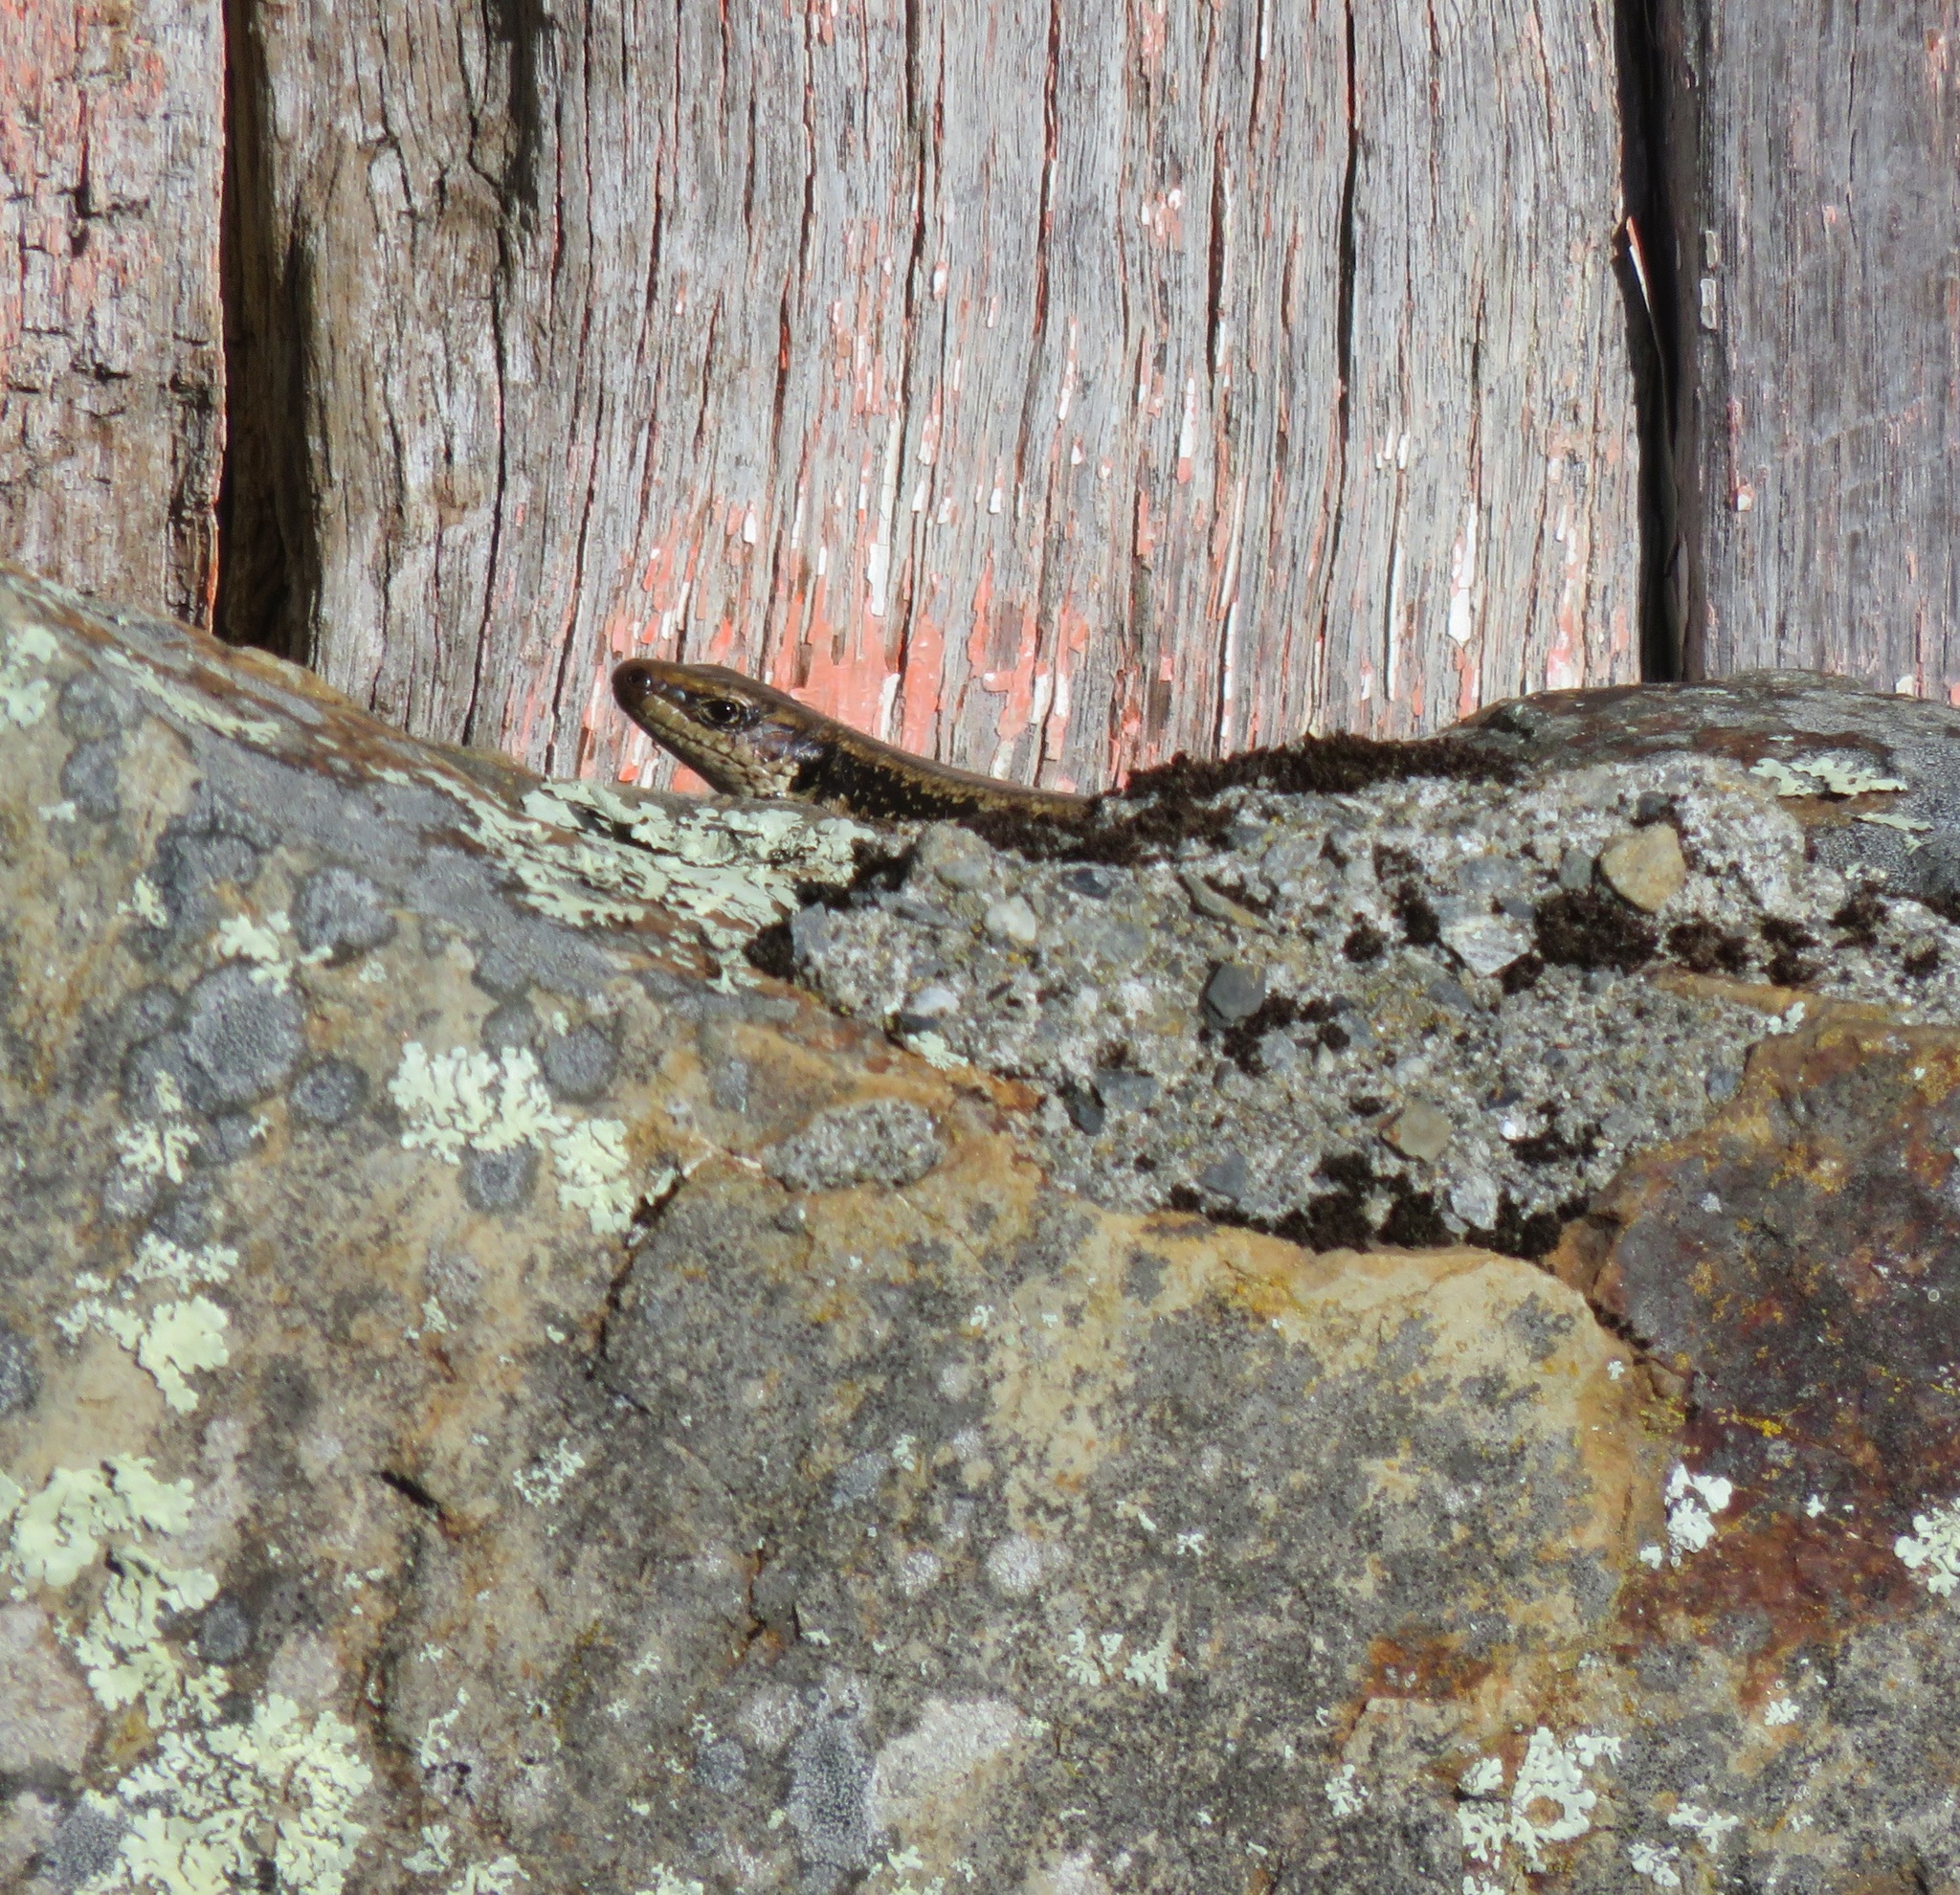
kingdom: Animalia
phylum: Chordata
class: Squamata
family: Scincidae
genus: Oligosoma
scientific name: Oligosoma kokowai
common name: Northern spotted skink
